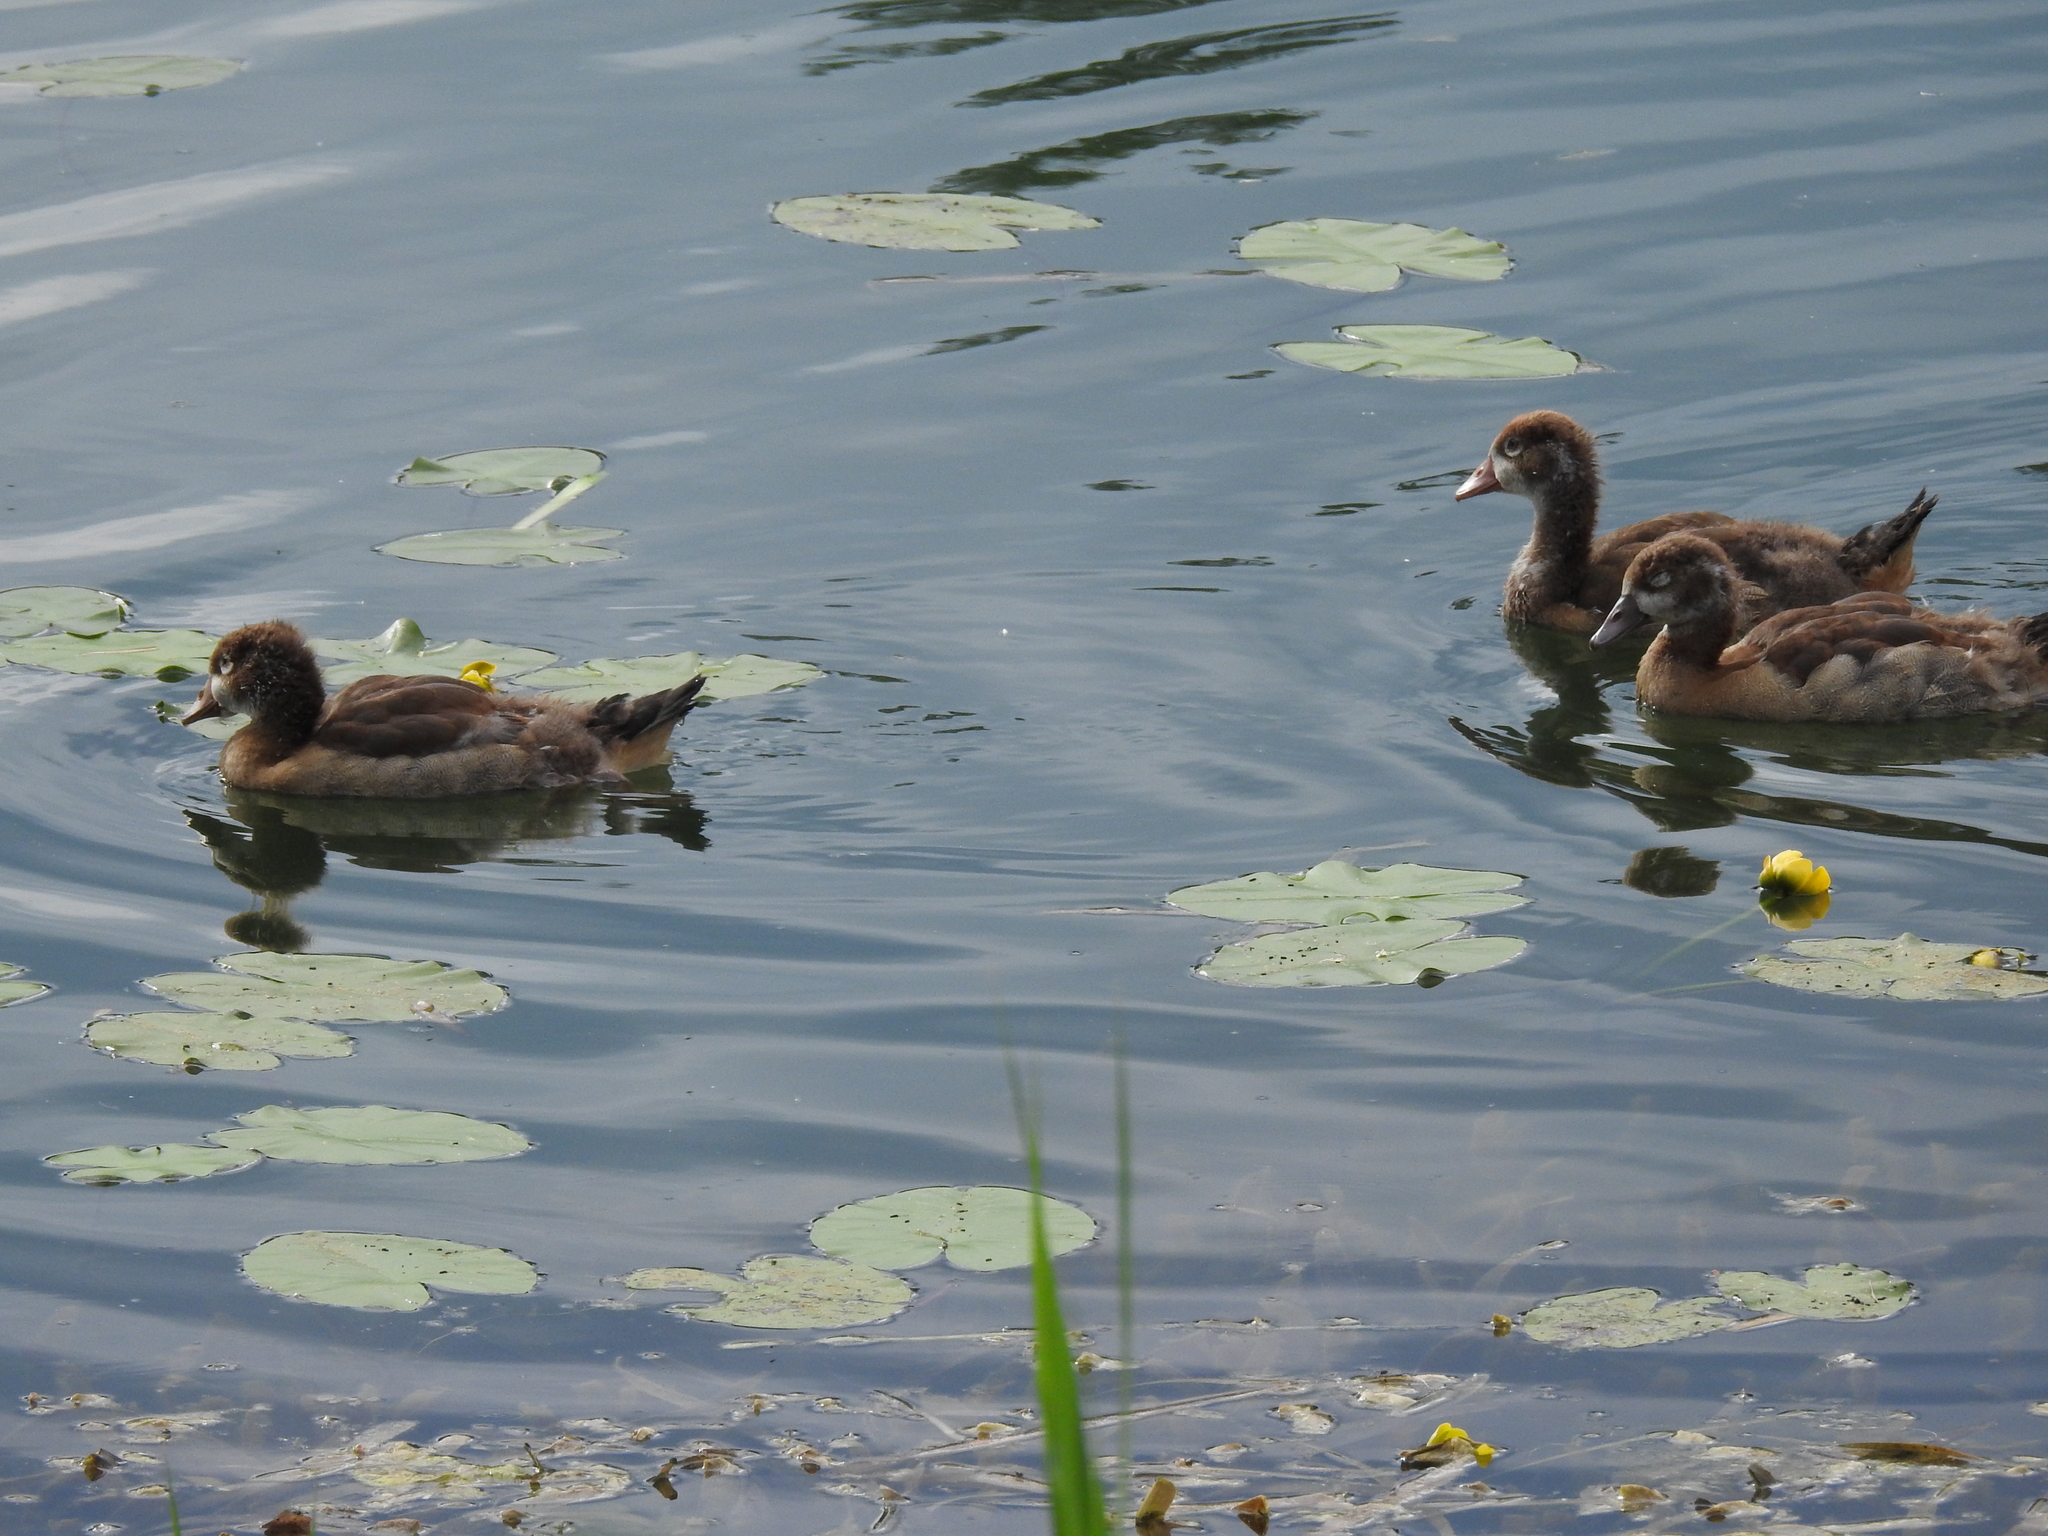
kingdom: Animalia
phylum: Chordata
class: Aves
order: Anseriformes
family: Anatidae
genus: Alopochen
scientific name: Alopochen aegyptiaca
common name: Egyptian goose
